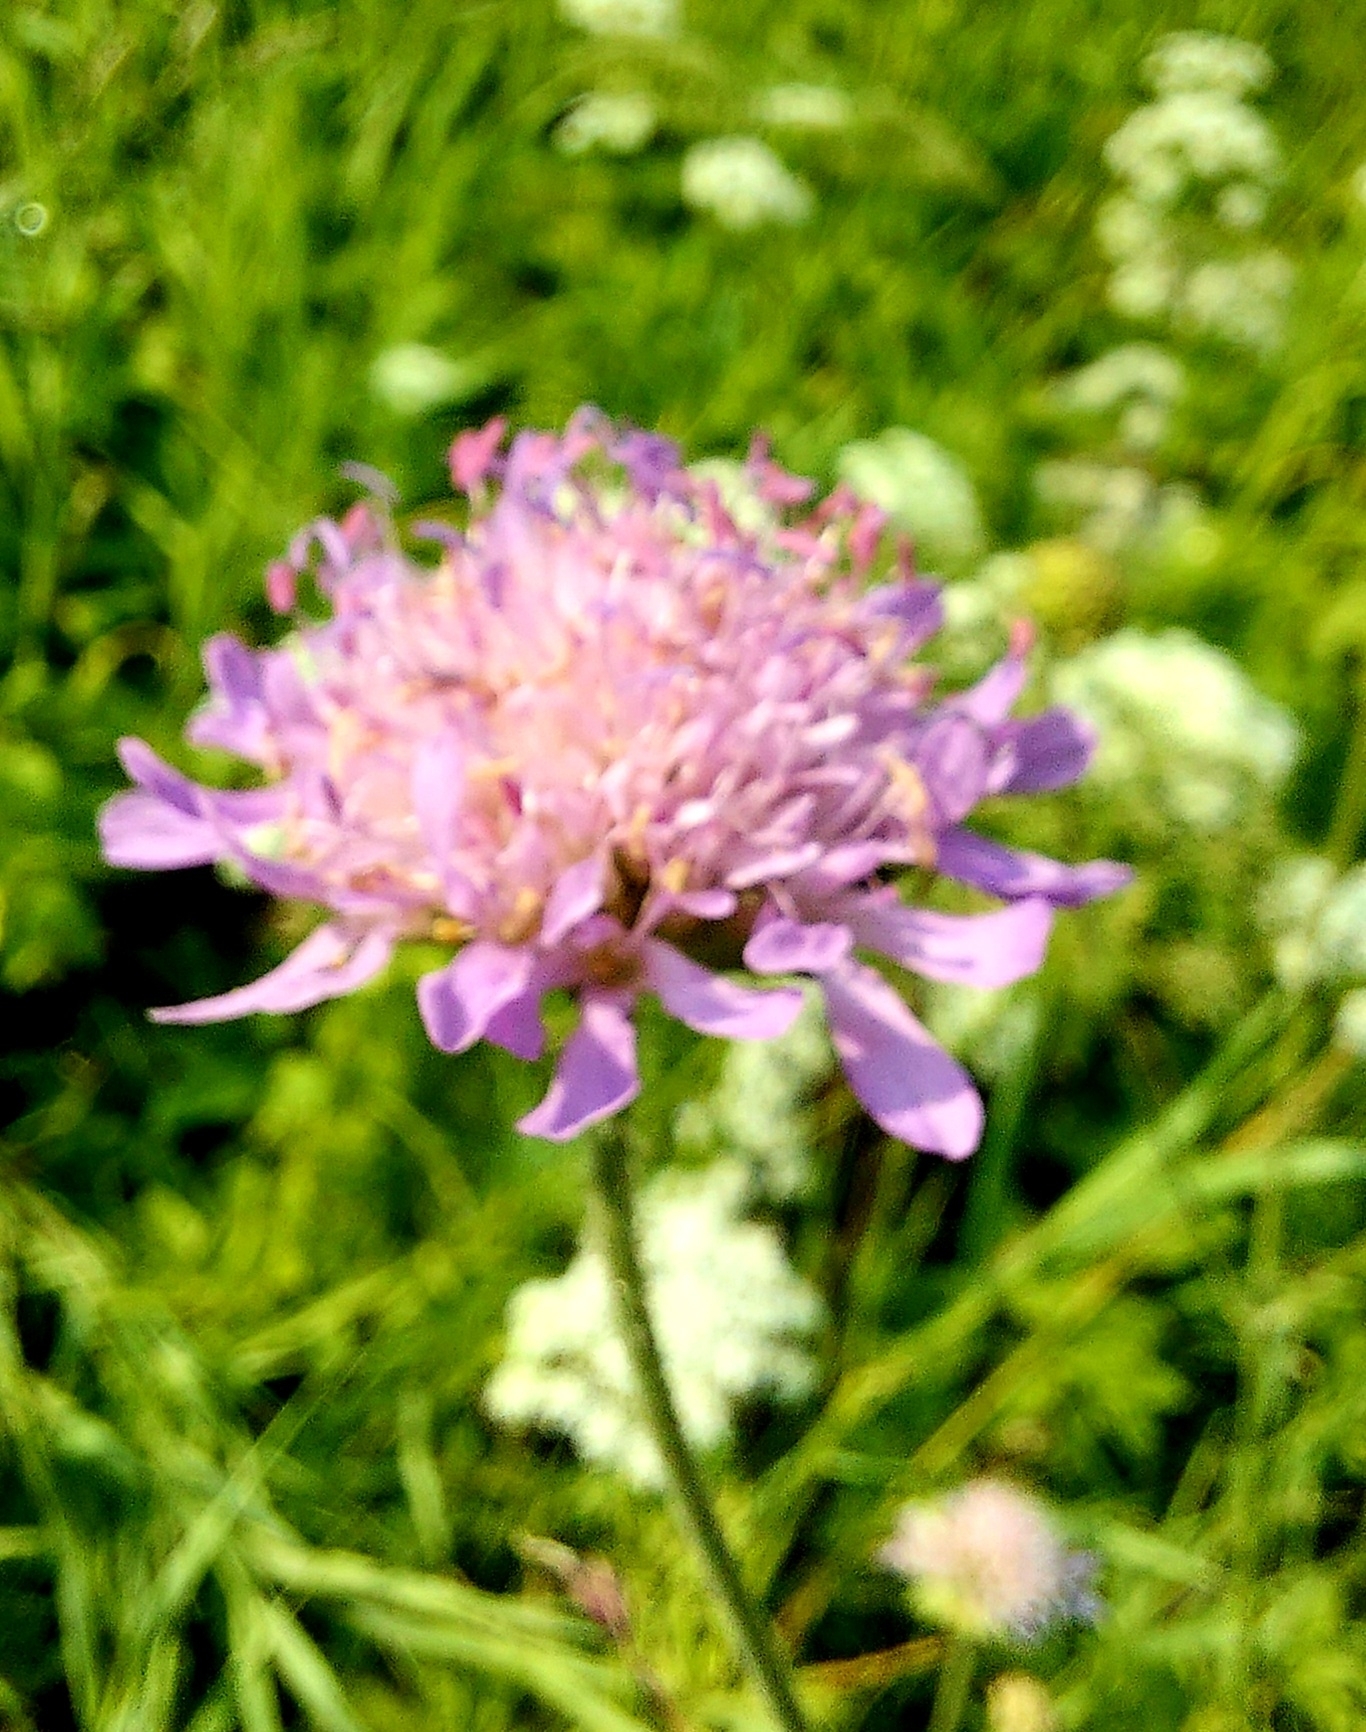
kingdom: Plantae
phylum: Tracheophyta
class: Magnoliopsida
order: Dipsacales
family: Caprifoliaceae
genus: Knautia
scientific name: Knautia arvensis
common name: Field scabiosa
